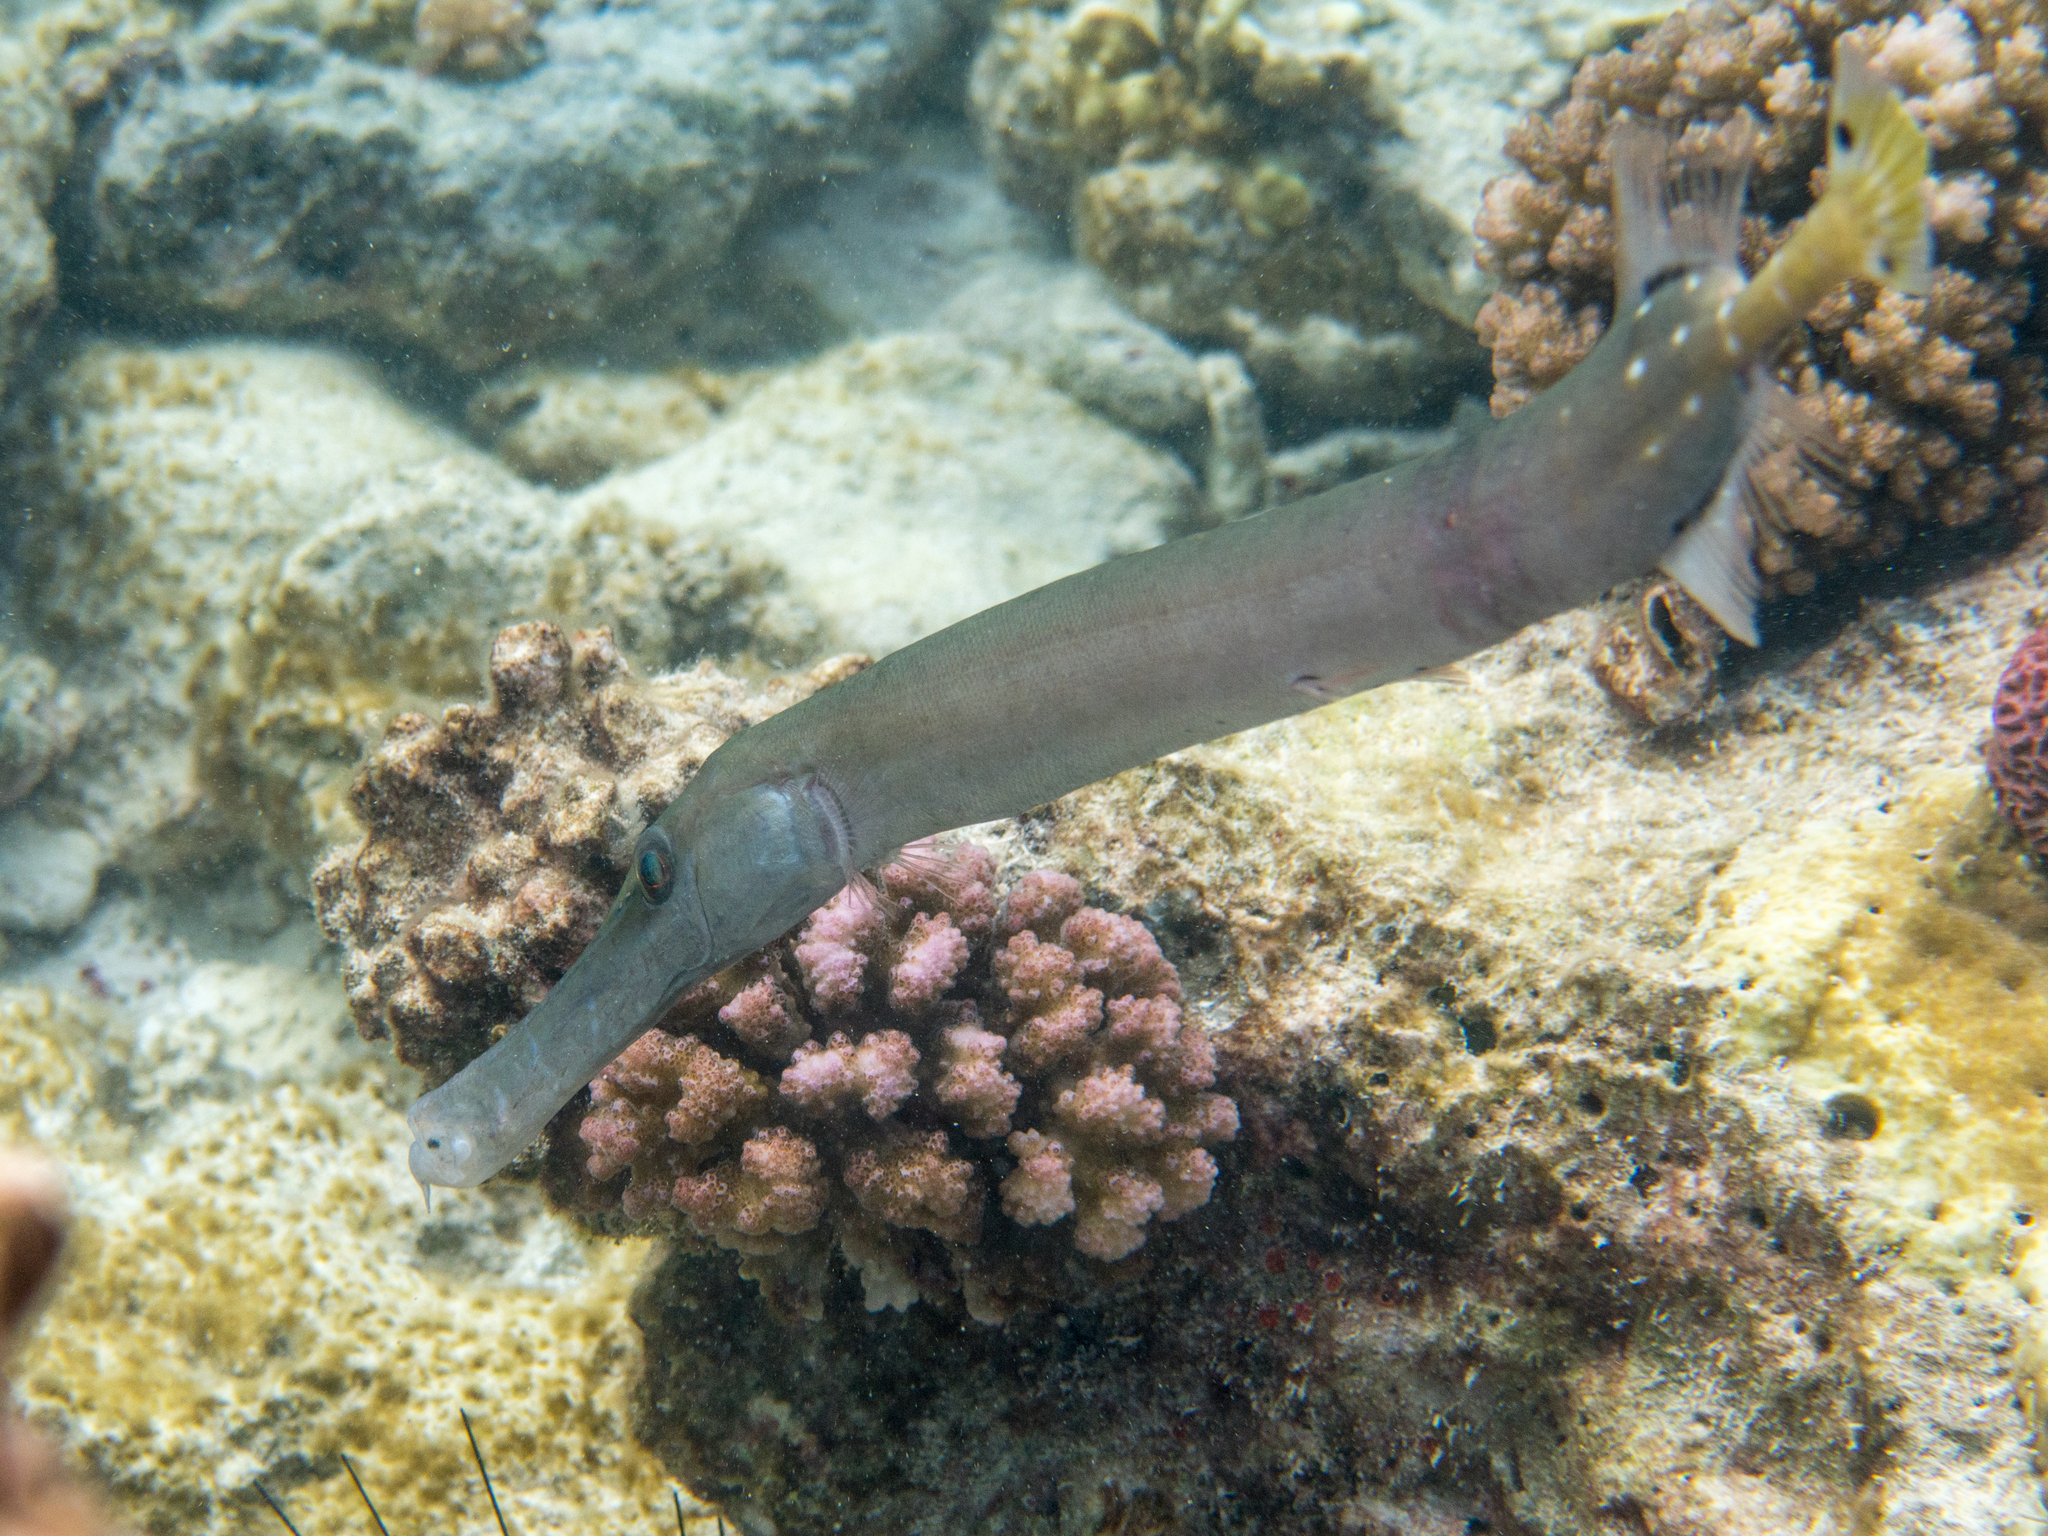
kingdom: Animalia
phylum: Chordata
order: Syngnathiformes
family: Aulostomidae
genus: Aulostomus
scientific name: Aulostomus chinensis
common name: Chinese trumpetfish
